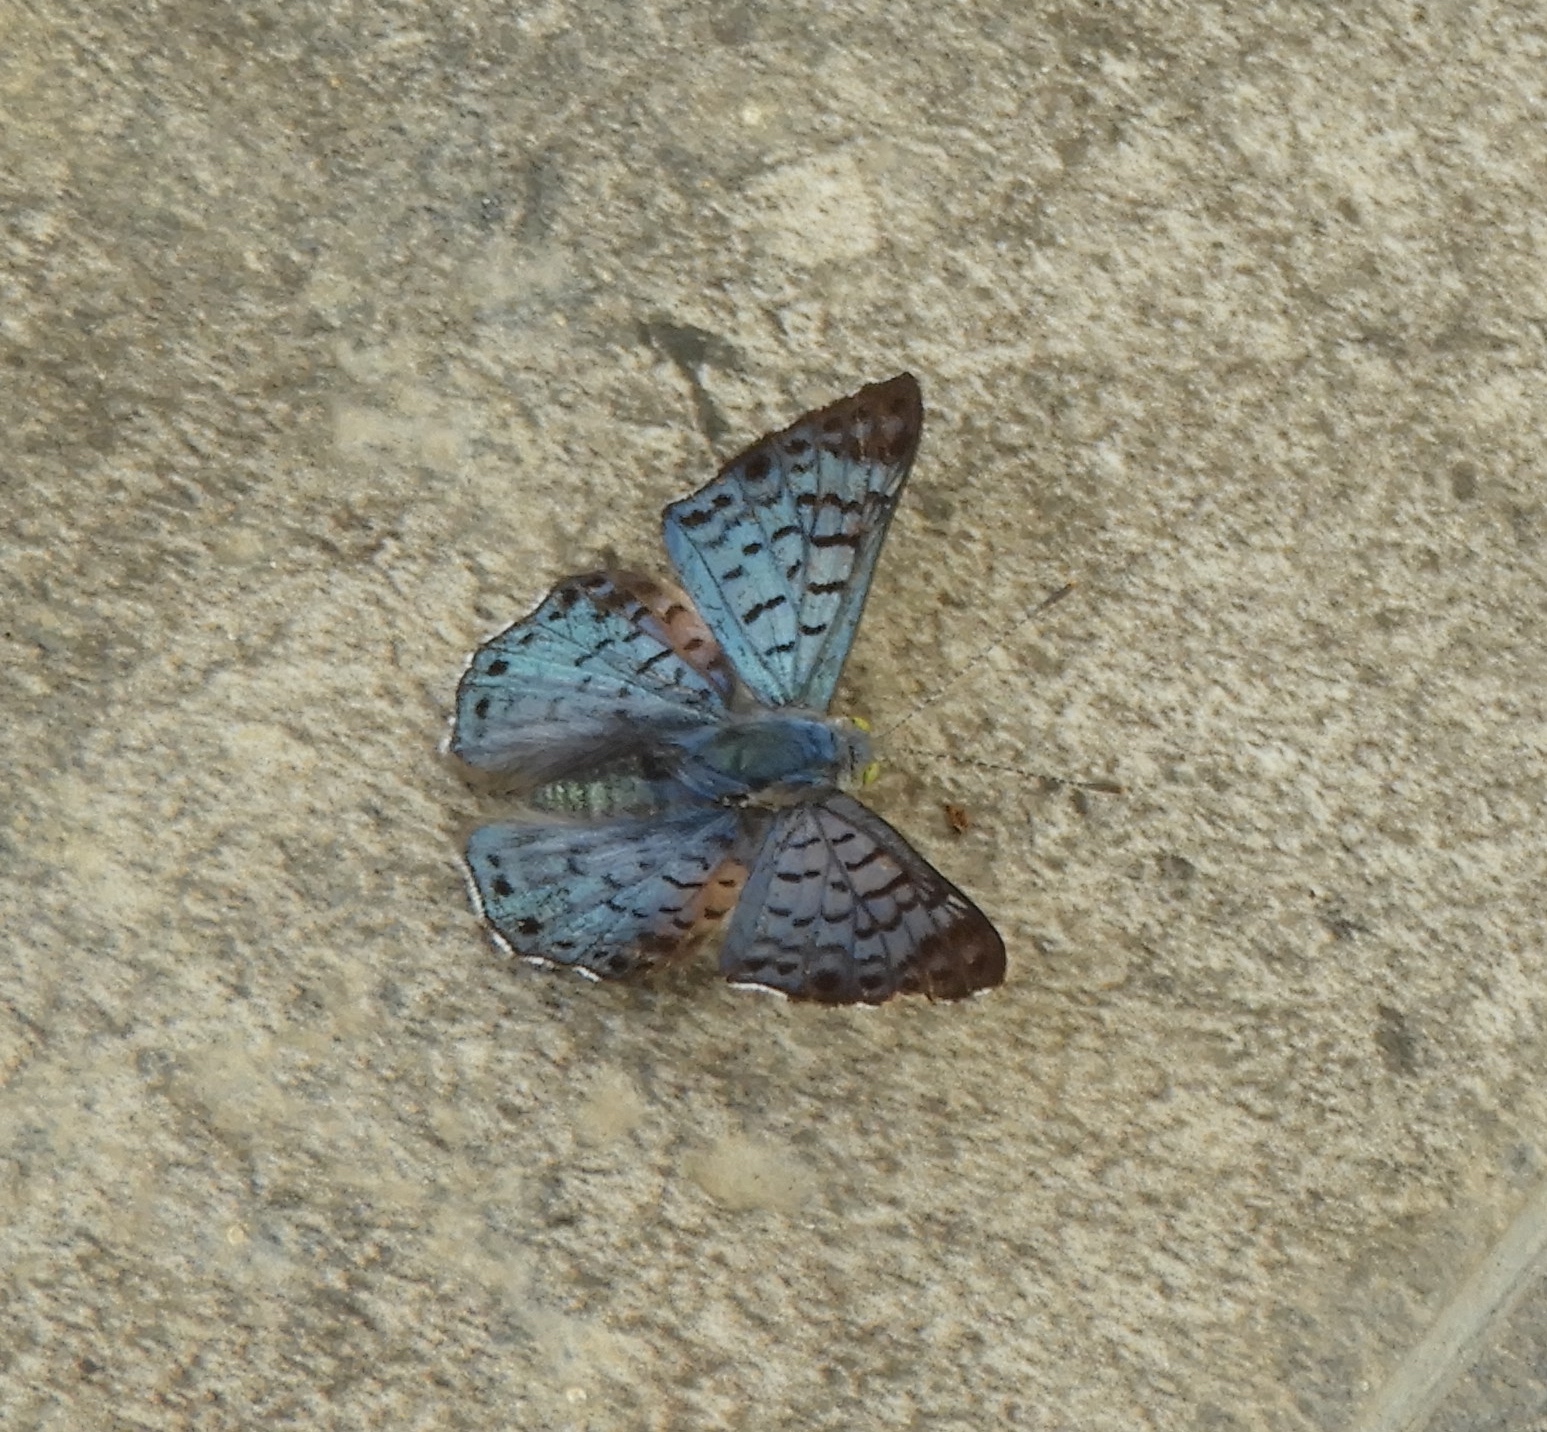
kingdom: Animalia
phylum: Arthropoda
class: Insecta
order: Lepidoptera
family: Riodinidae
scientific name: Riodinidae
